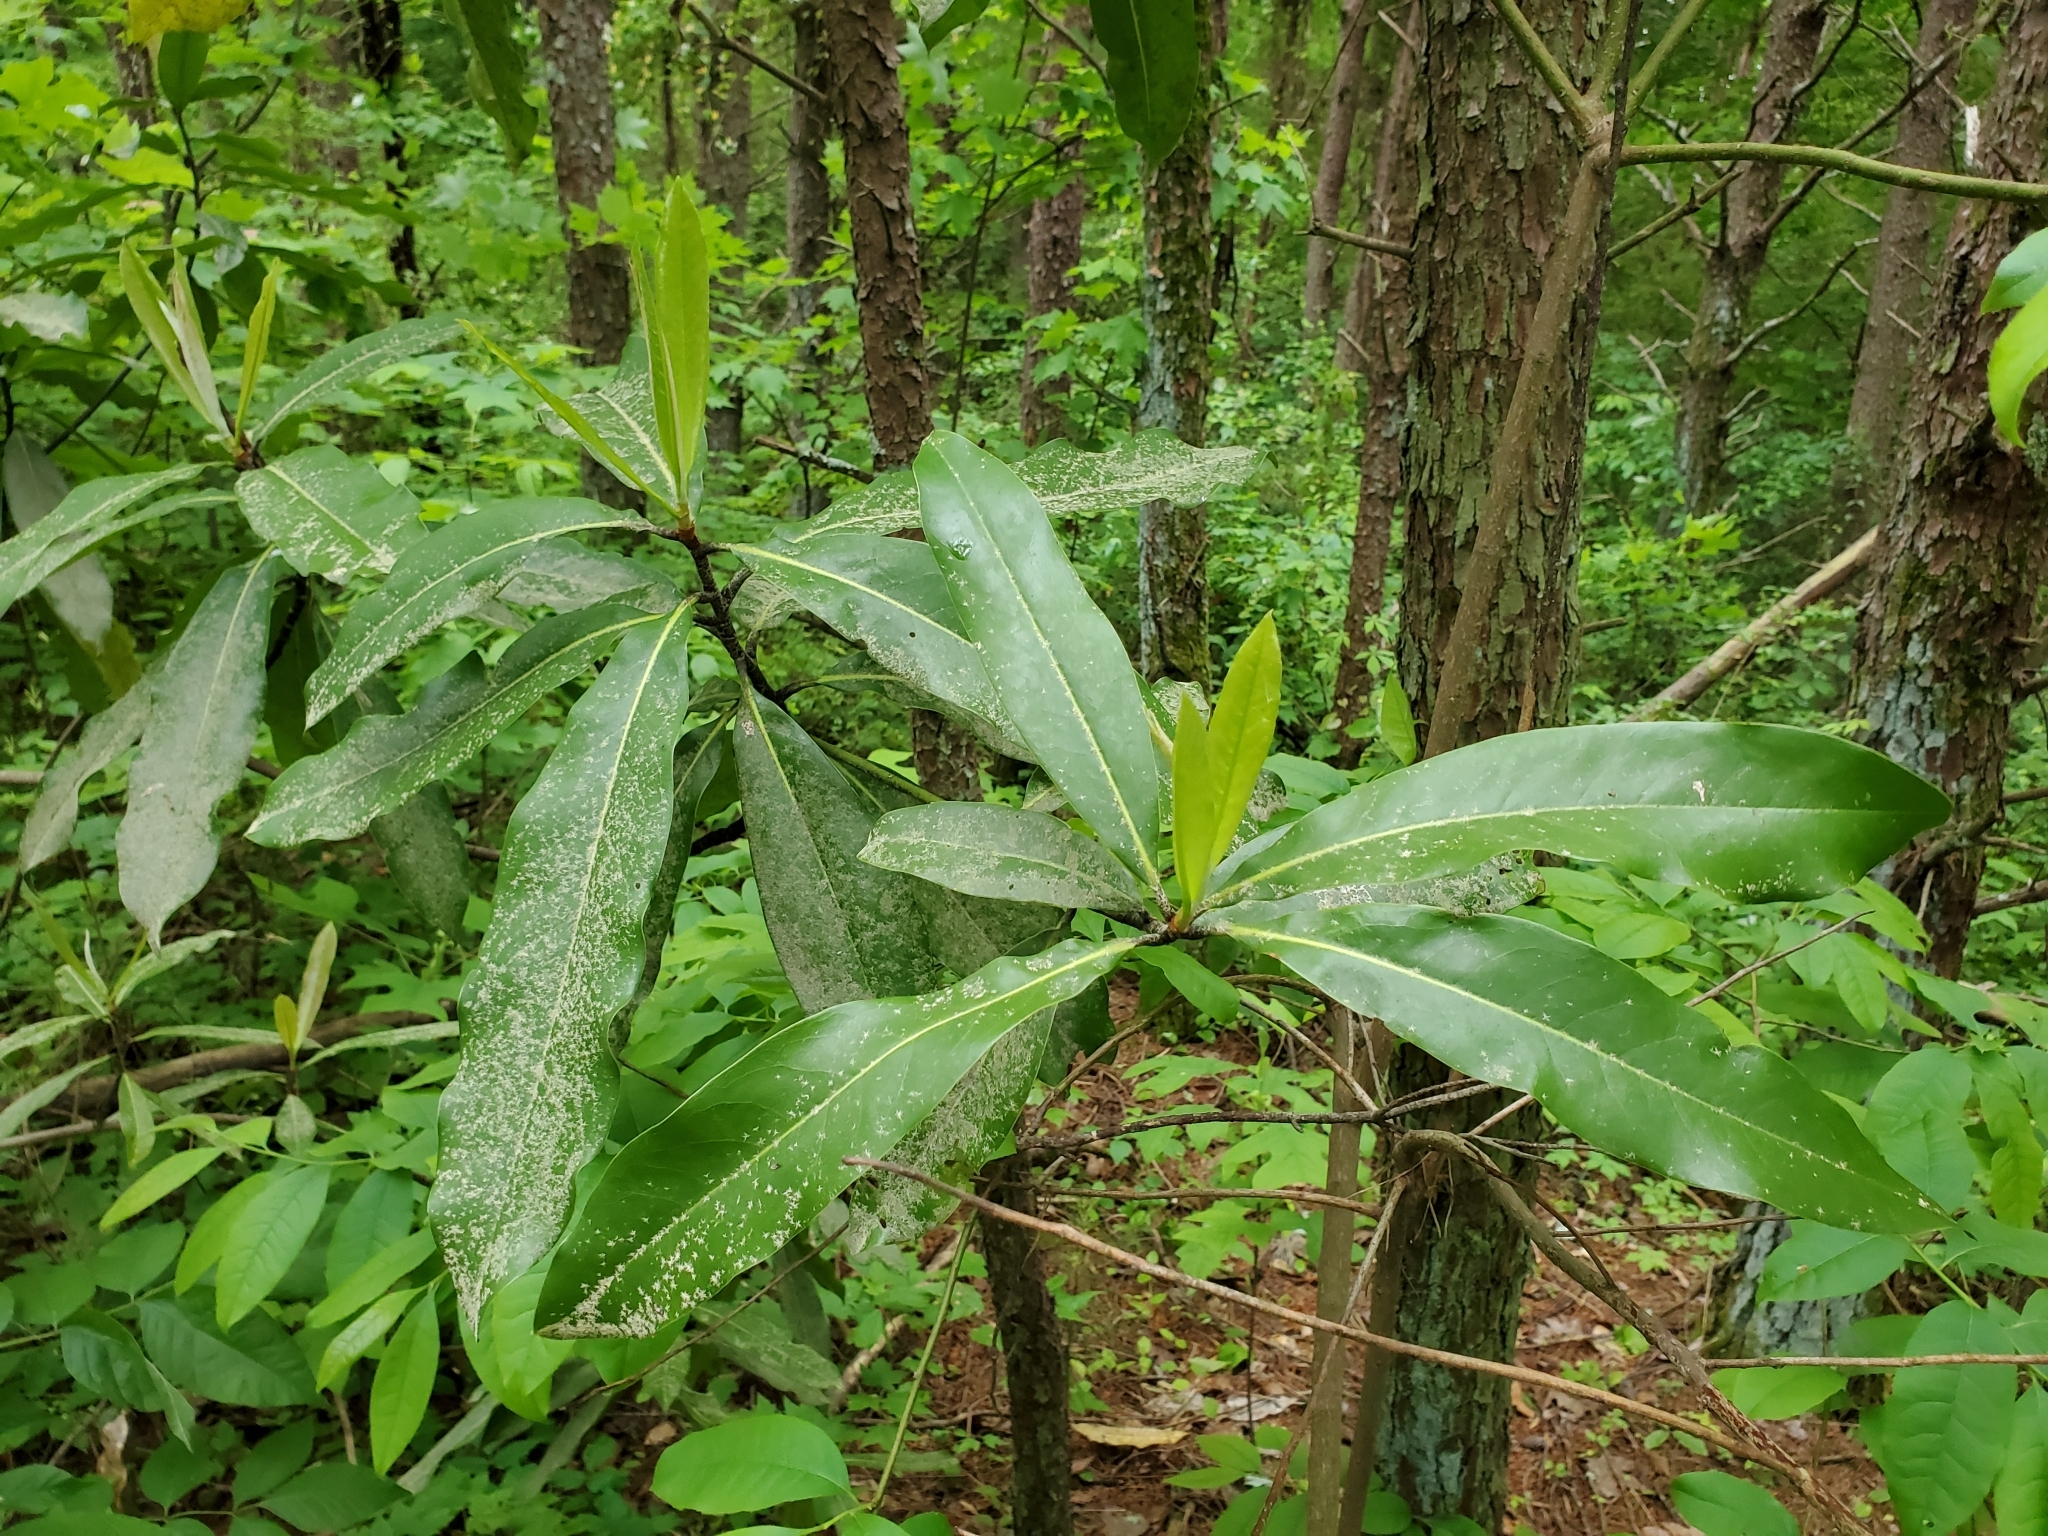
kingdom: Plantae
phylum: Tracheophyta
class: Magnoliopsida
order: Magnoliales
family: Magnoliaceae
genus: Magnolia
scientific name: Magnolia grandiflora
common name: Southern magnolia
